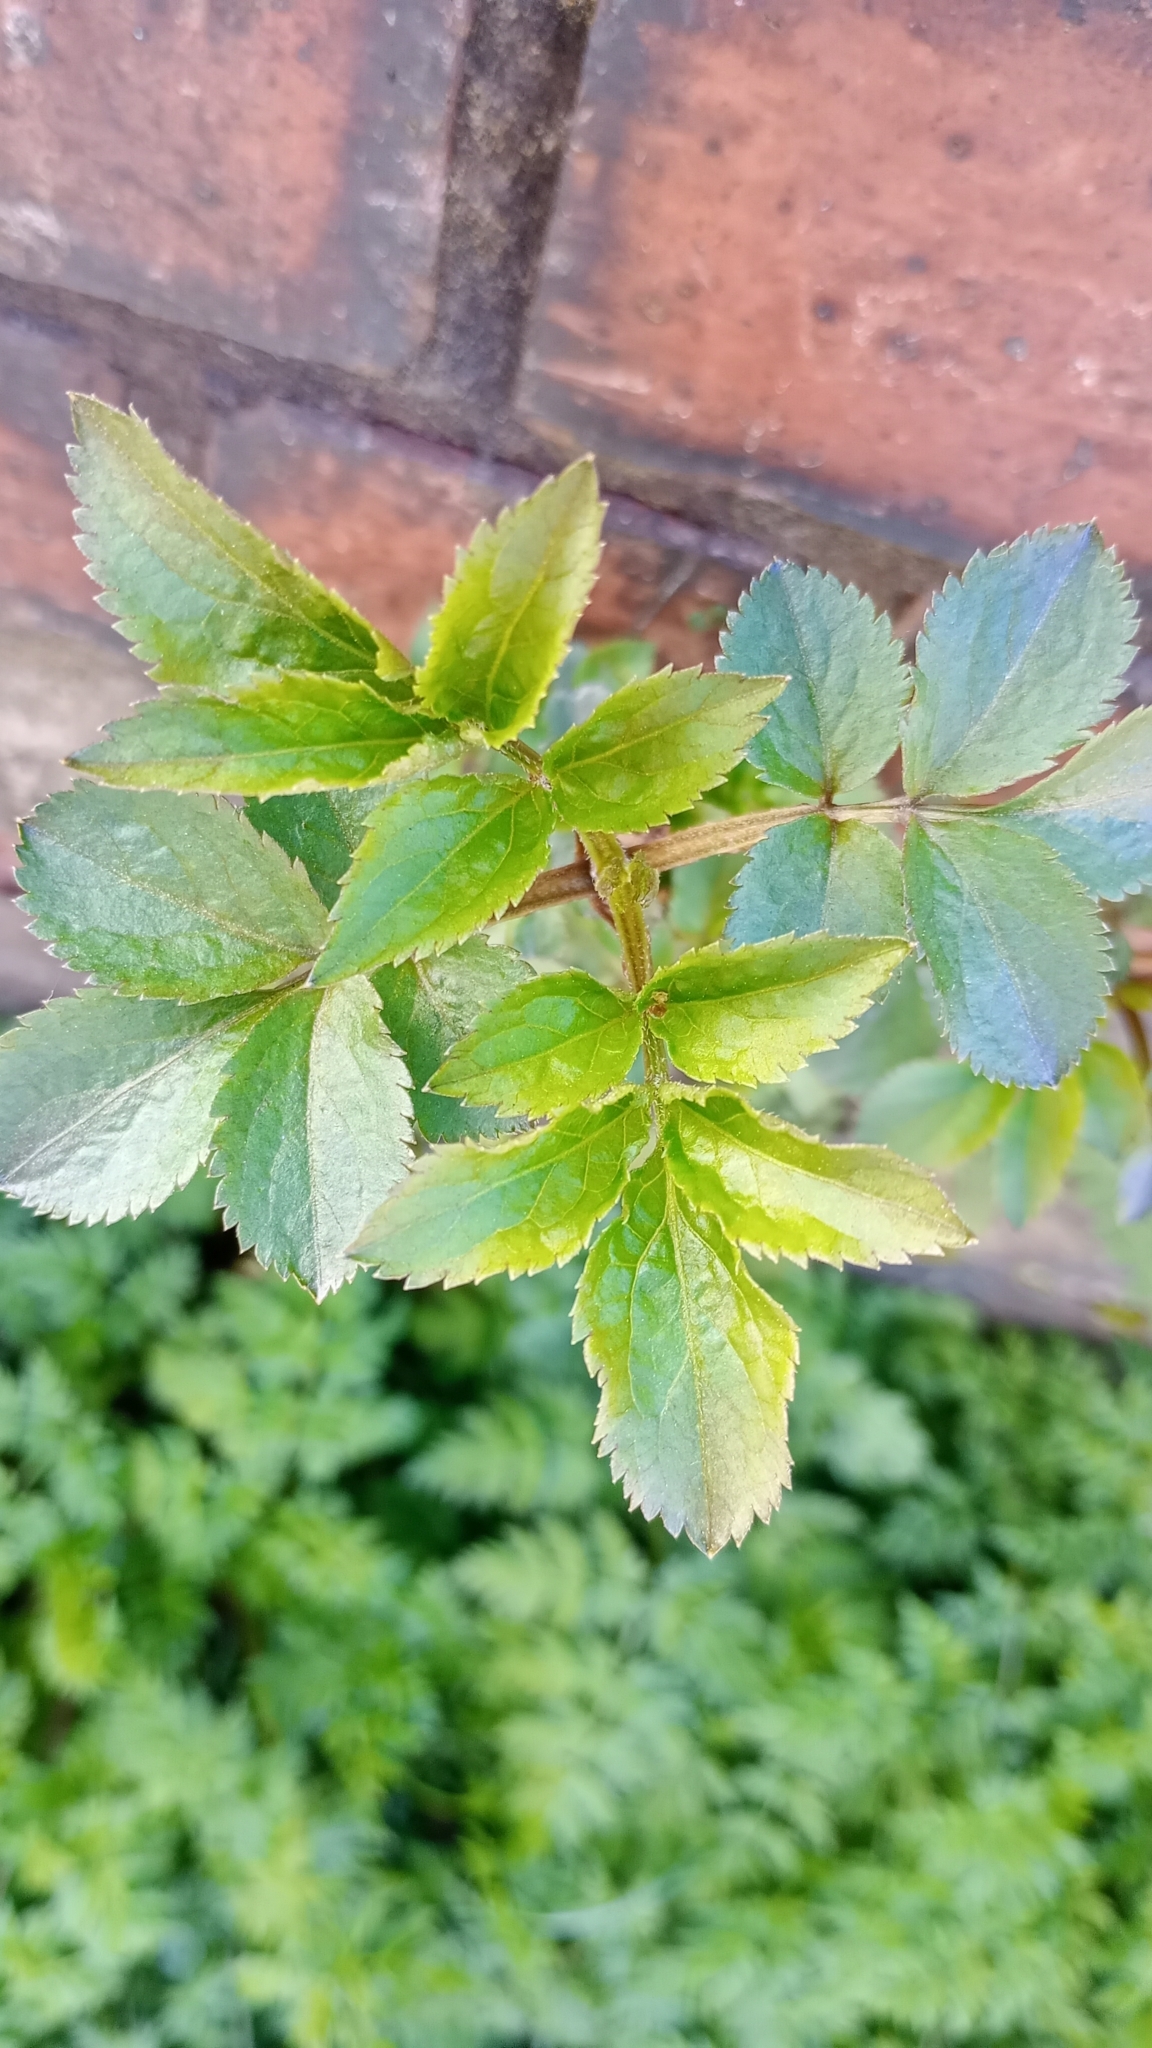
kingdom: Plantae
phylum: Tracheophyta
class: Magnoliopsida
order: Dipsacales
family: Viburnaceae
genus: Sambucus
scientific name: Sambucus nigra
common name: Elder
